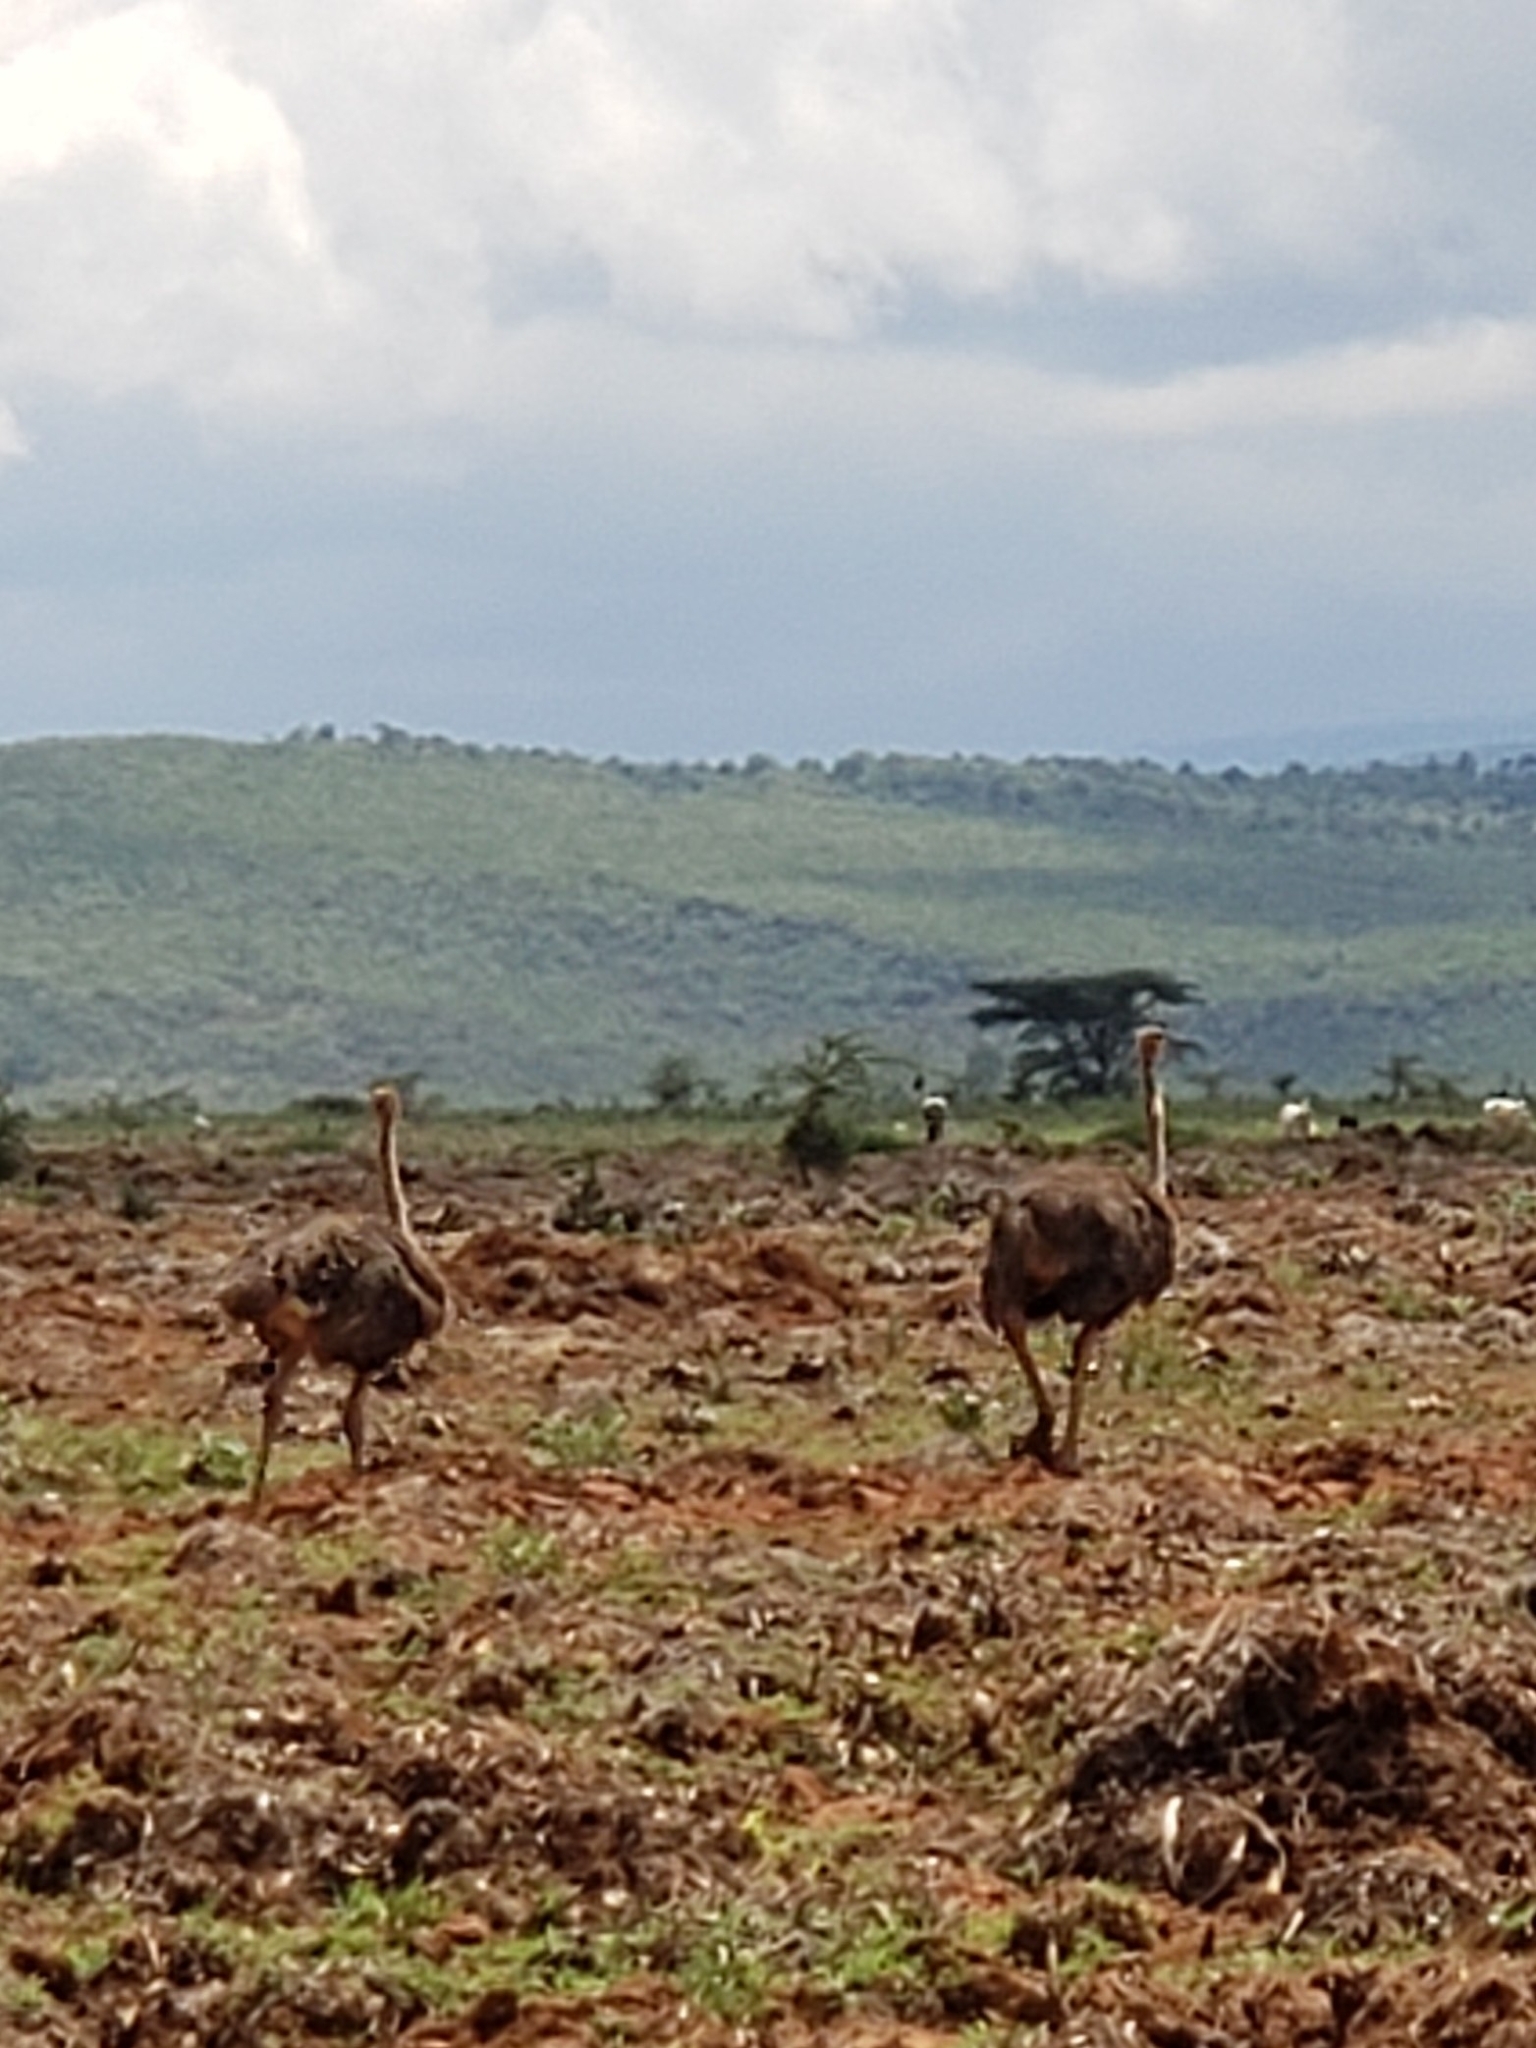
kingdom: Animalia
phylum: Chordata
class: Aves
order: Struthioniformes
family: Struthionidae
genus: Struthio
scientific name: Struthio camelus
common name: Common ostrich
